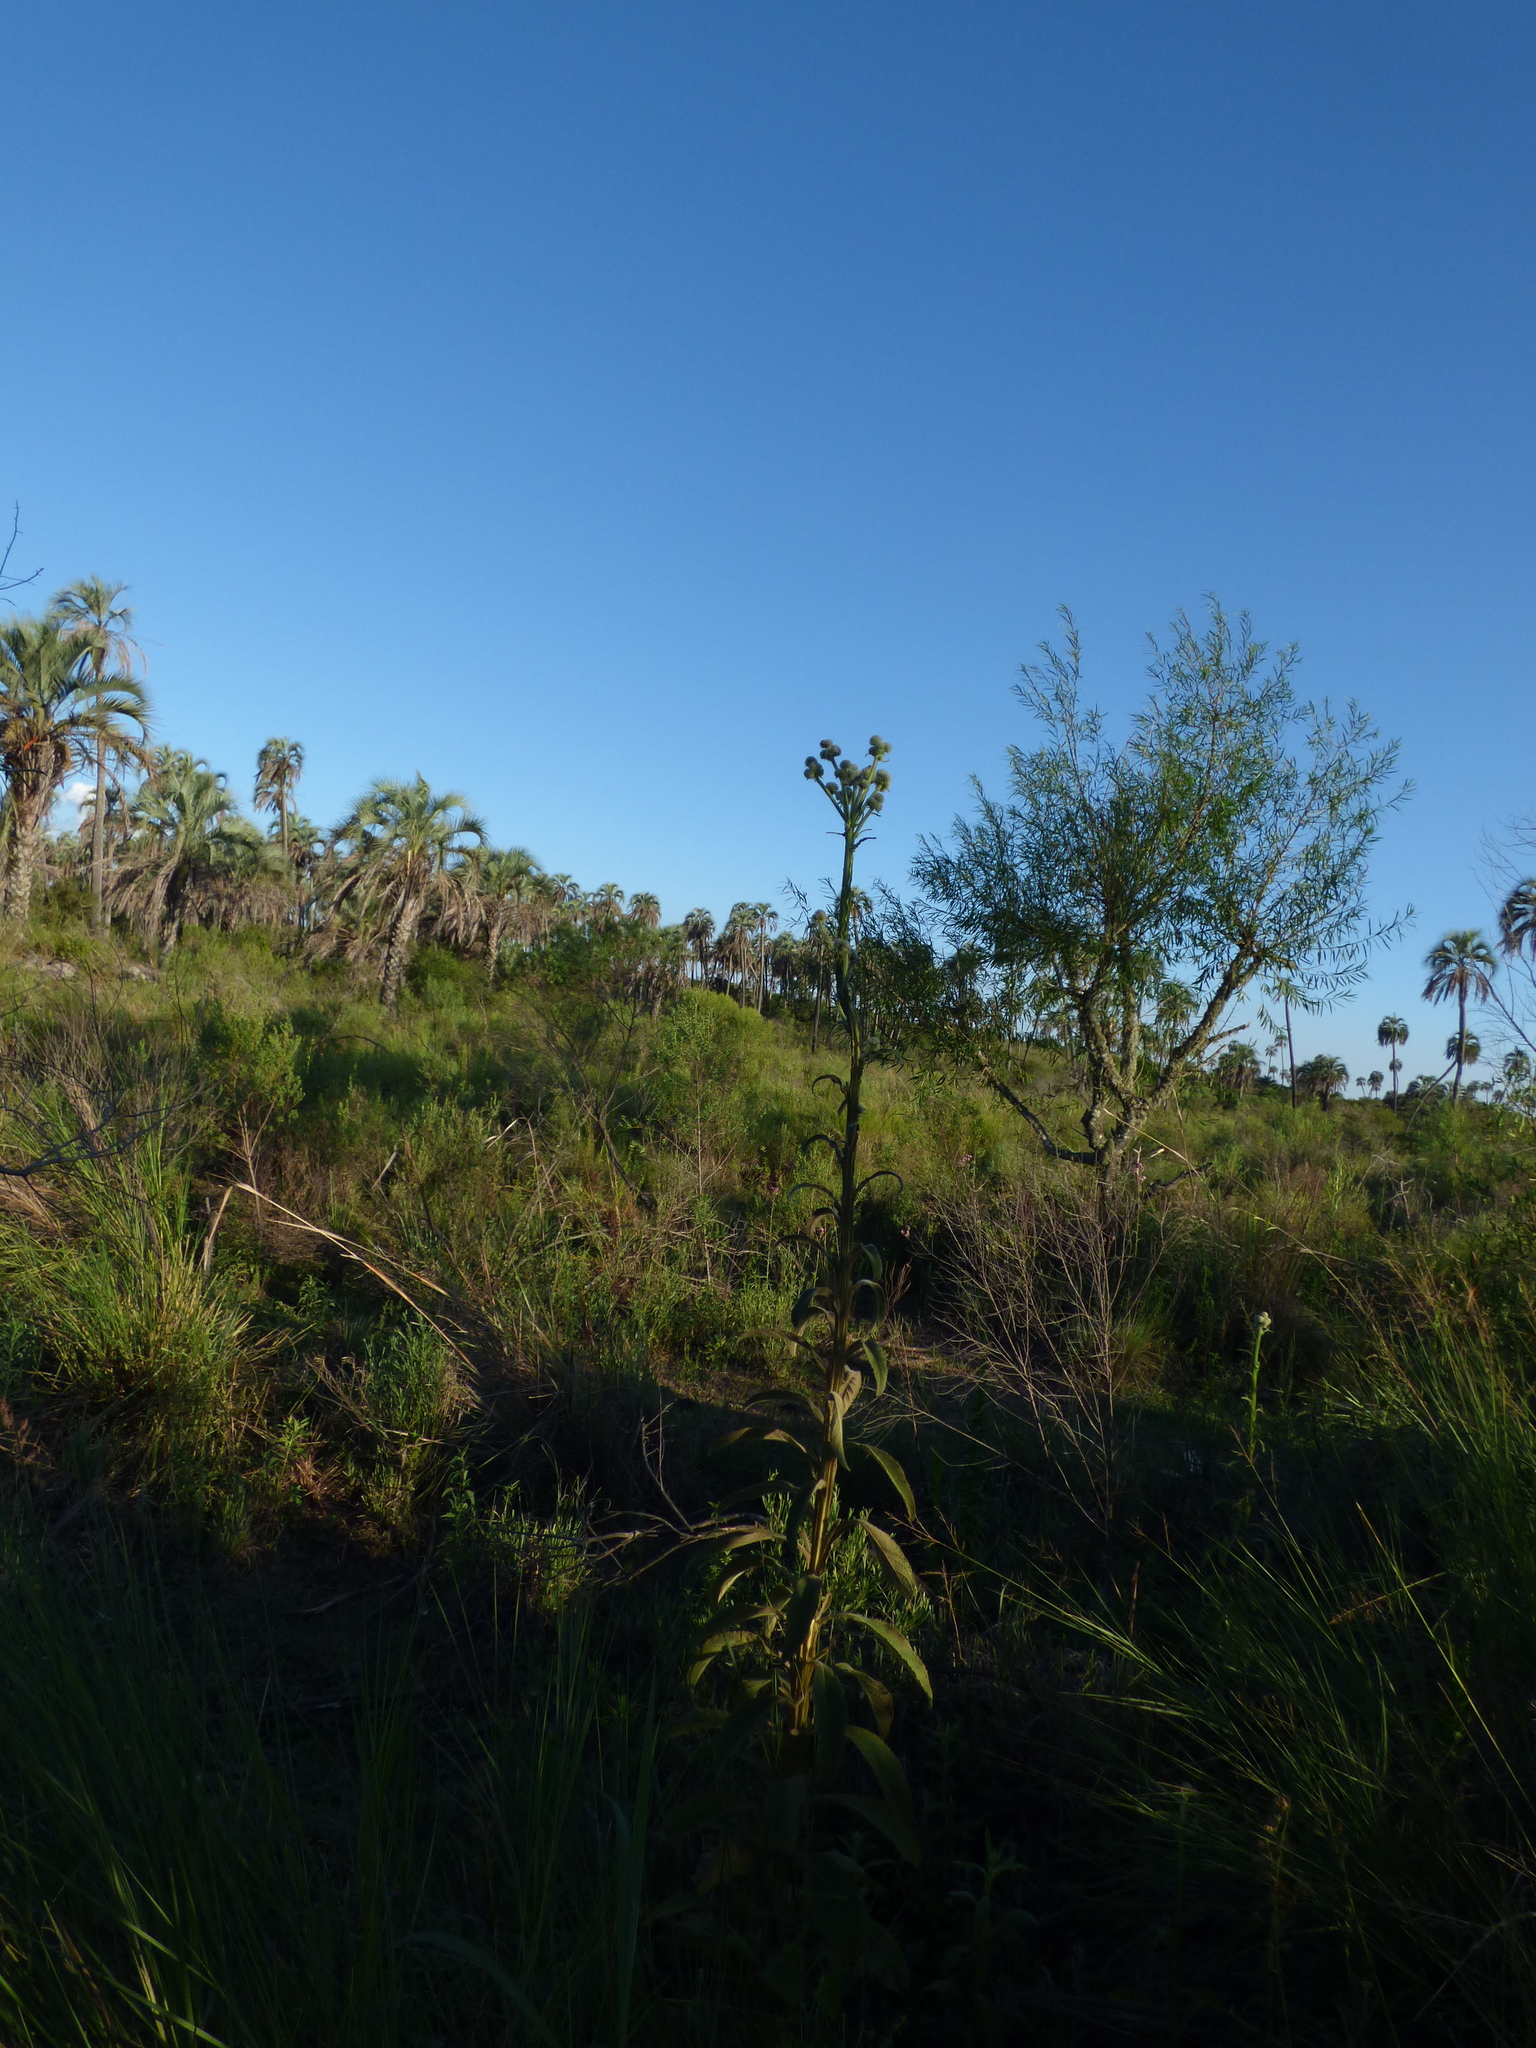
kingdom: Plantae
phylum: Tracheophyta
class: Magnoliopsida
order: Asterales
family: Asteraceae
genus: Stenachaenium
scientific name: Stenachaenium macrocephalum
